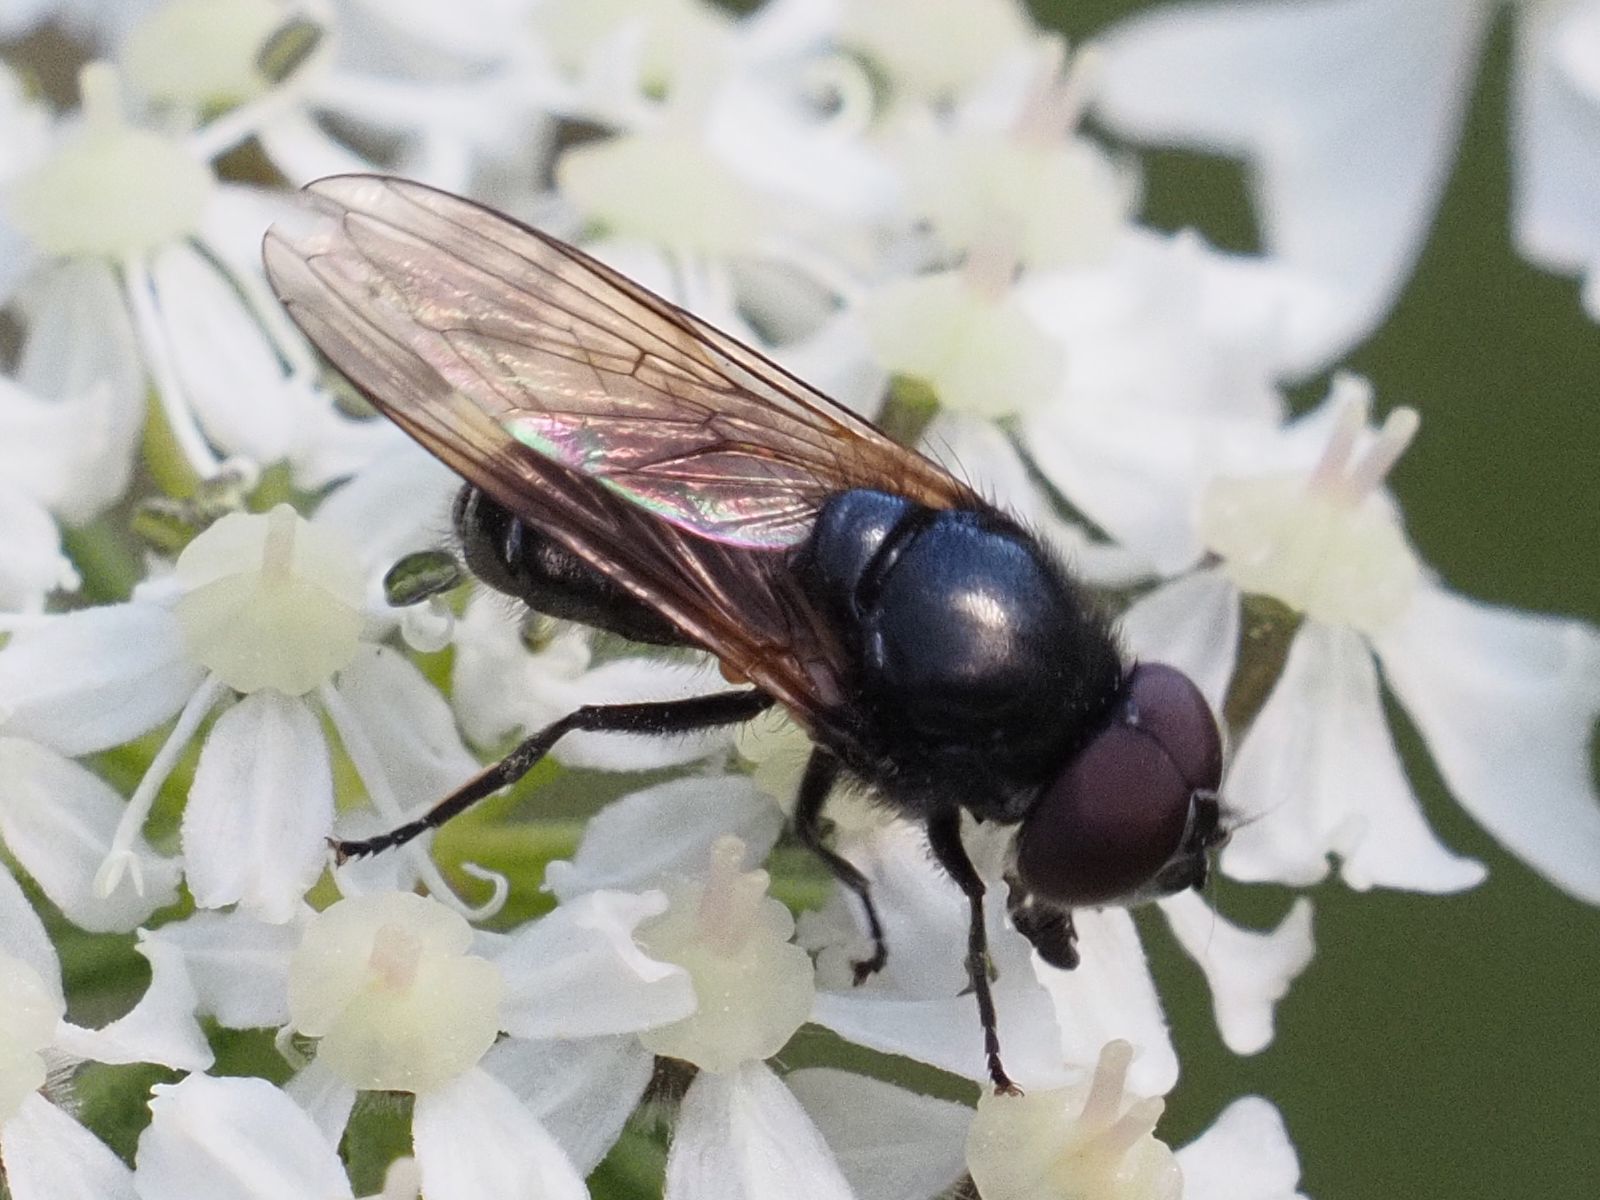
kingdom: Animalia
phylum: Arthropoda
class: Insecta
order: Diptera
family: Syrphidae
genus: Cheilosia
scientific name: Cheilosia impressa
